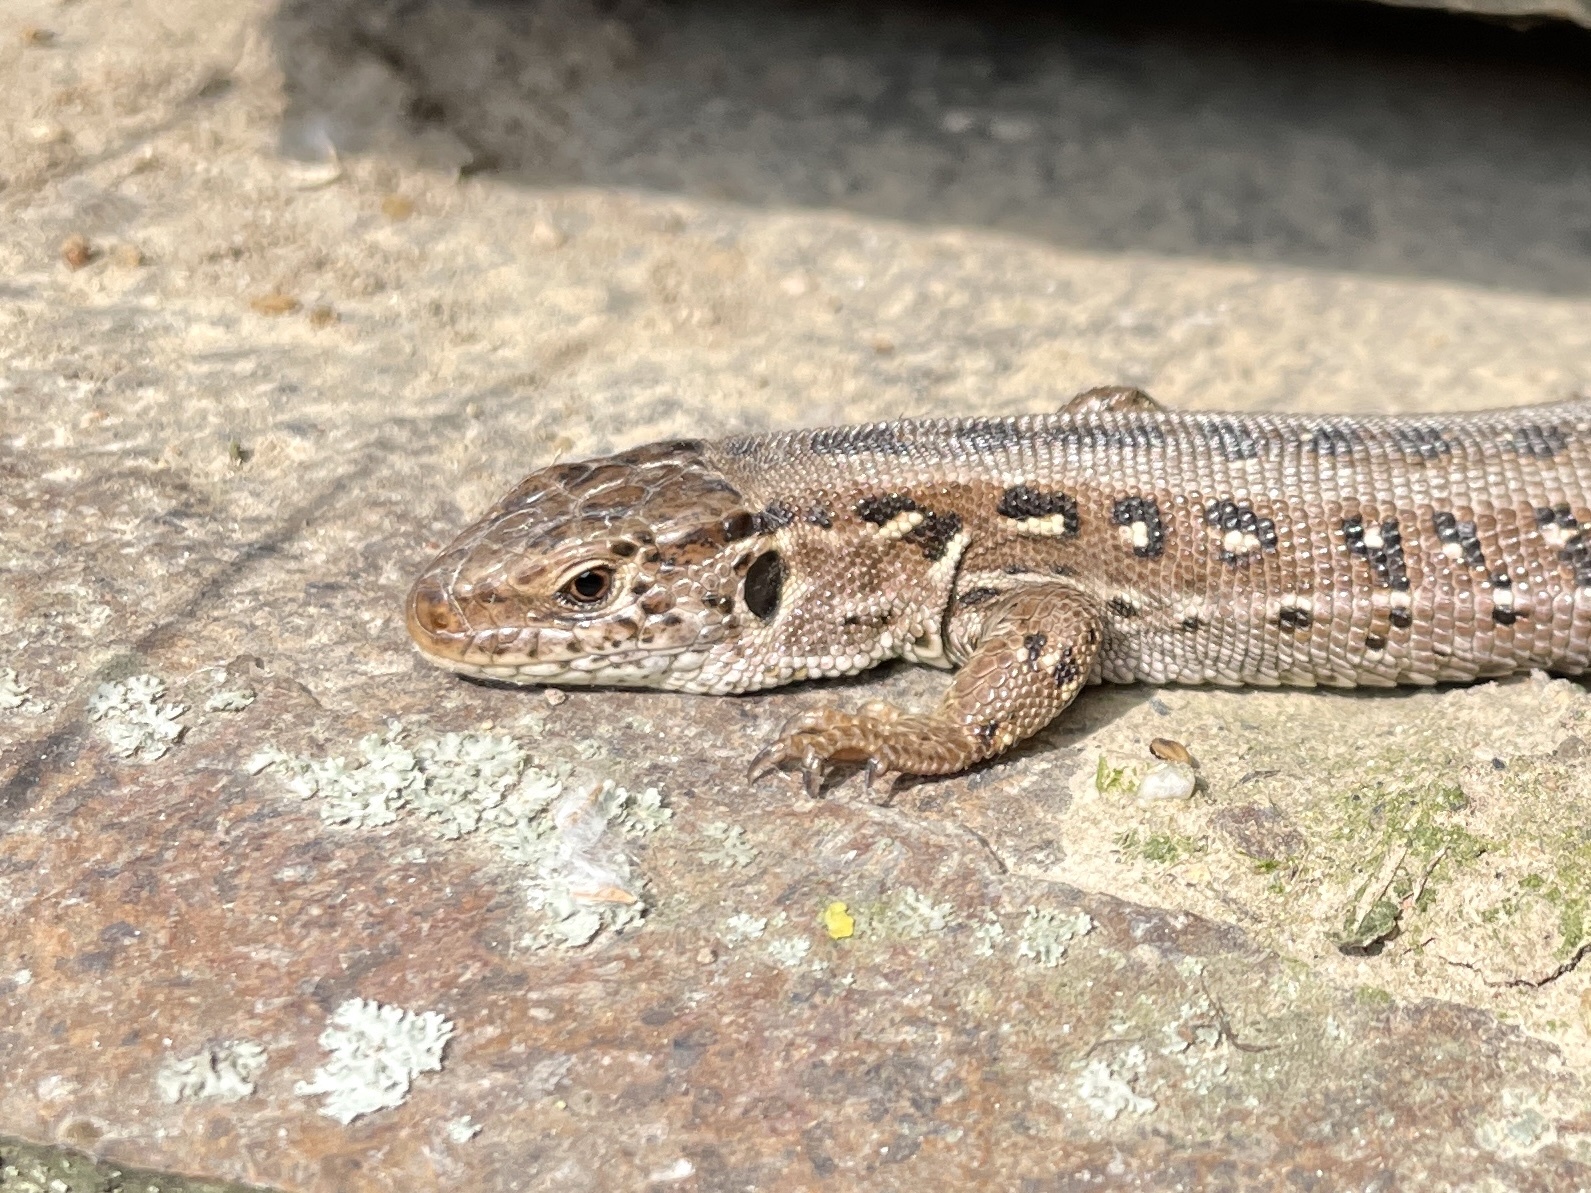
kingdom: Animalia
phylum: Chordata
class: Squamata
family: Lacertidae
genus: Lacerta
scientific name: Lacerta agilis
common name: Sand lizard
